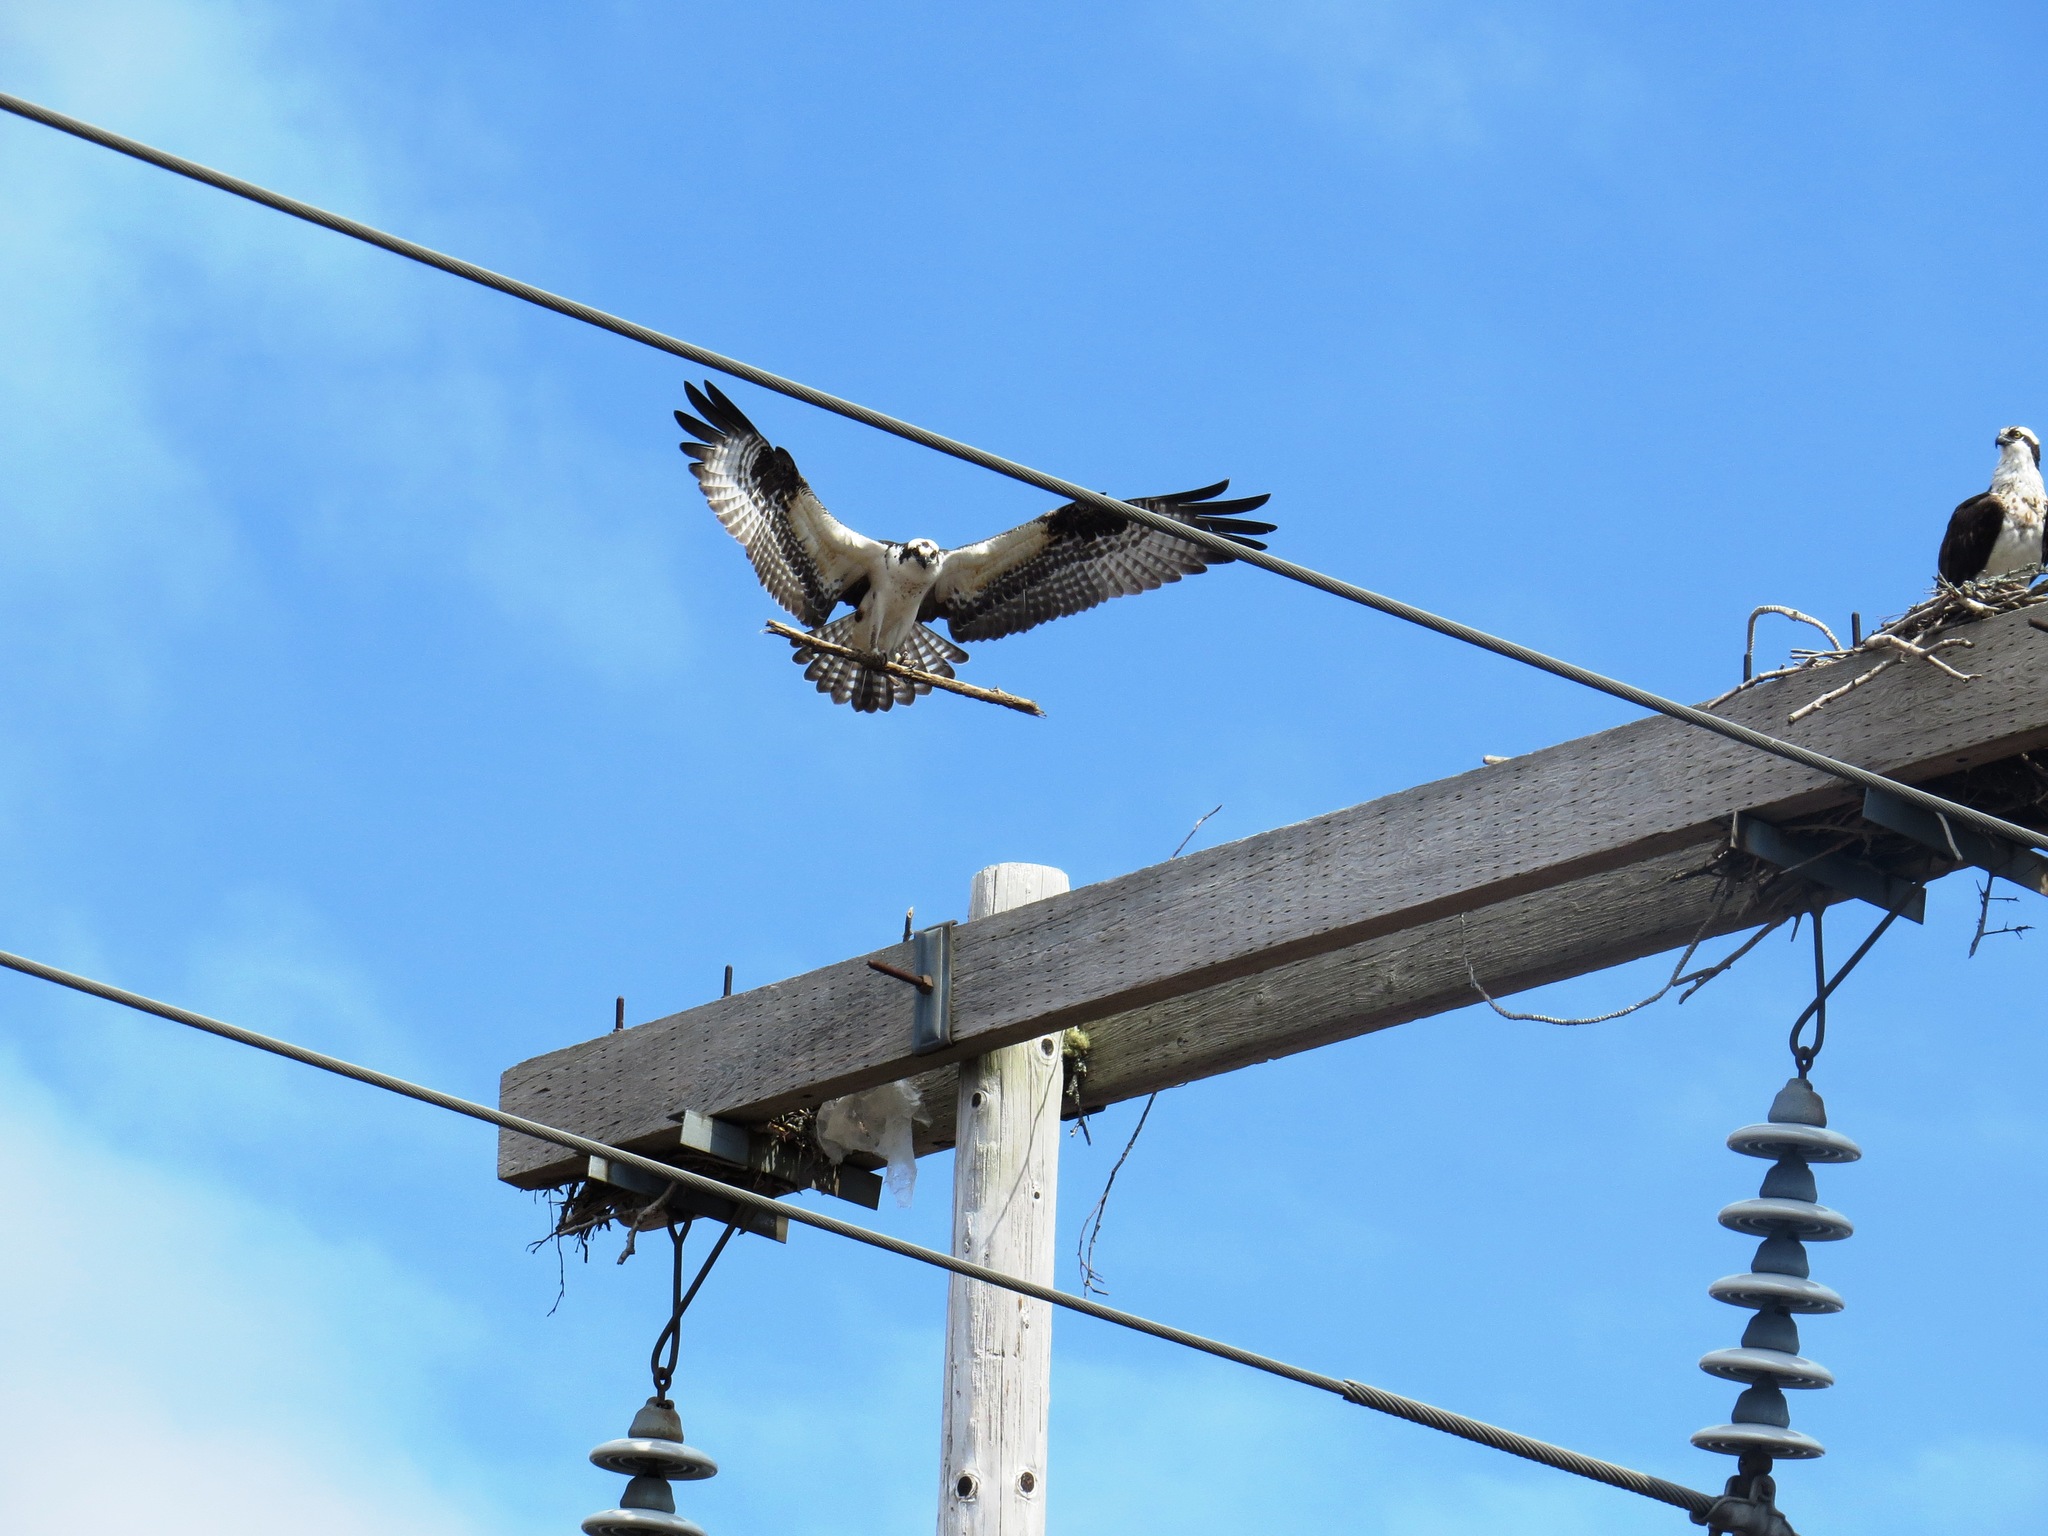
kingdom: Animalia
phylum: Chordata
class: Aves
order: Accipitriformes
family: Pandionidae
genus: Pandion
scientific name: Pandion haliaetus
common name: Osprey
